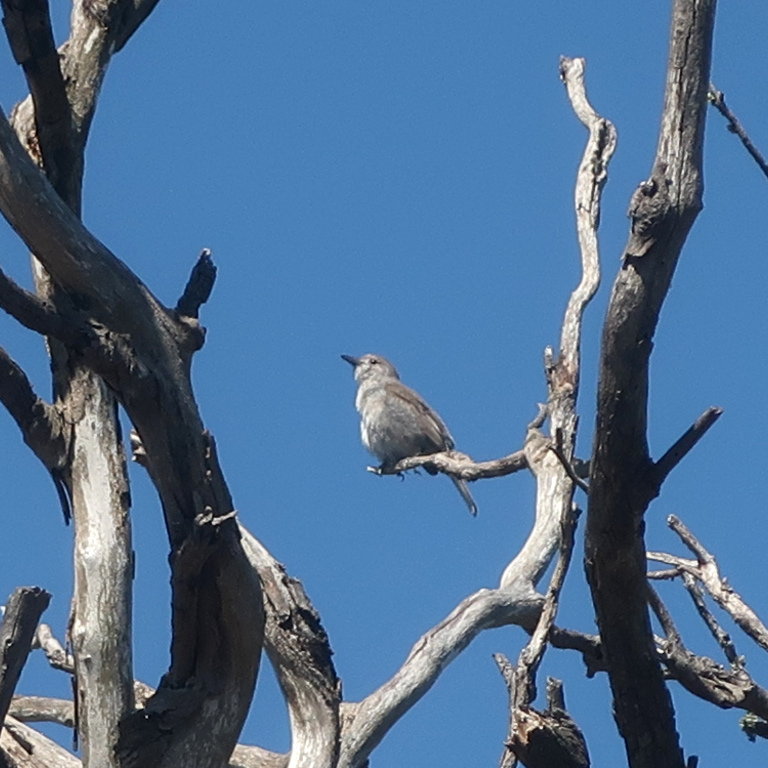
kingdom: Animalia
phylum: Chordata
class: Aves
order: Passeriformes
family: Pachycephalidae
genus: Colluricincla
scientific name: Colluricincla harmonica
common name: Grey shrikethrush
